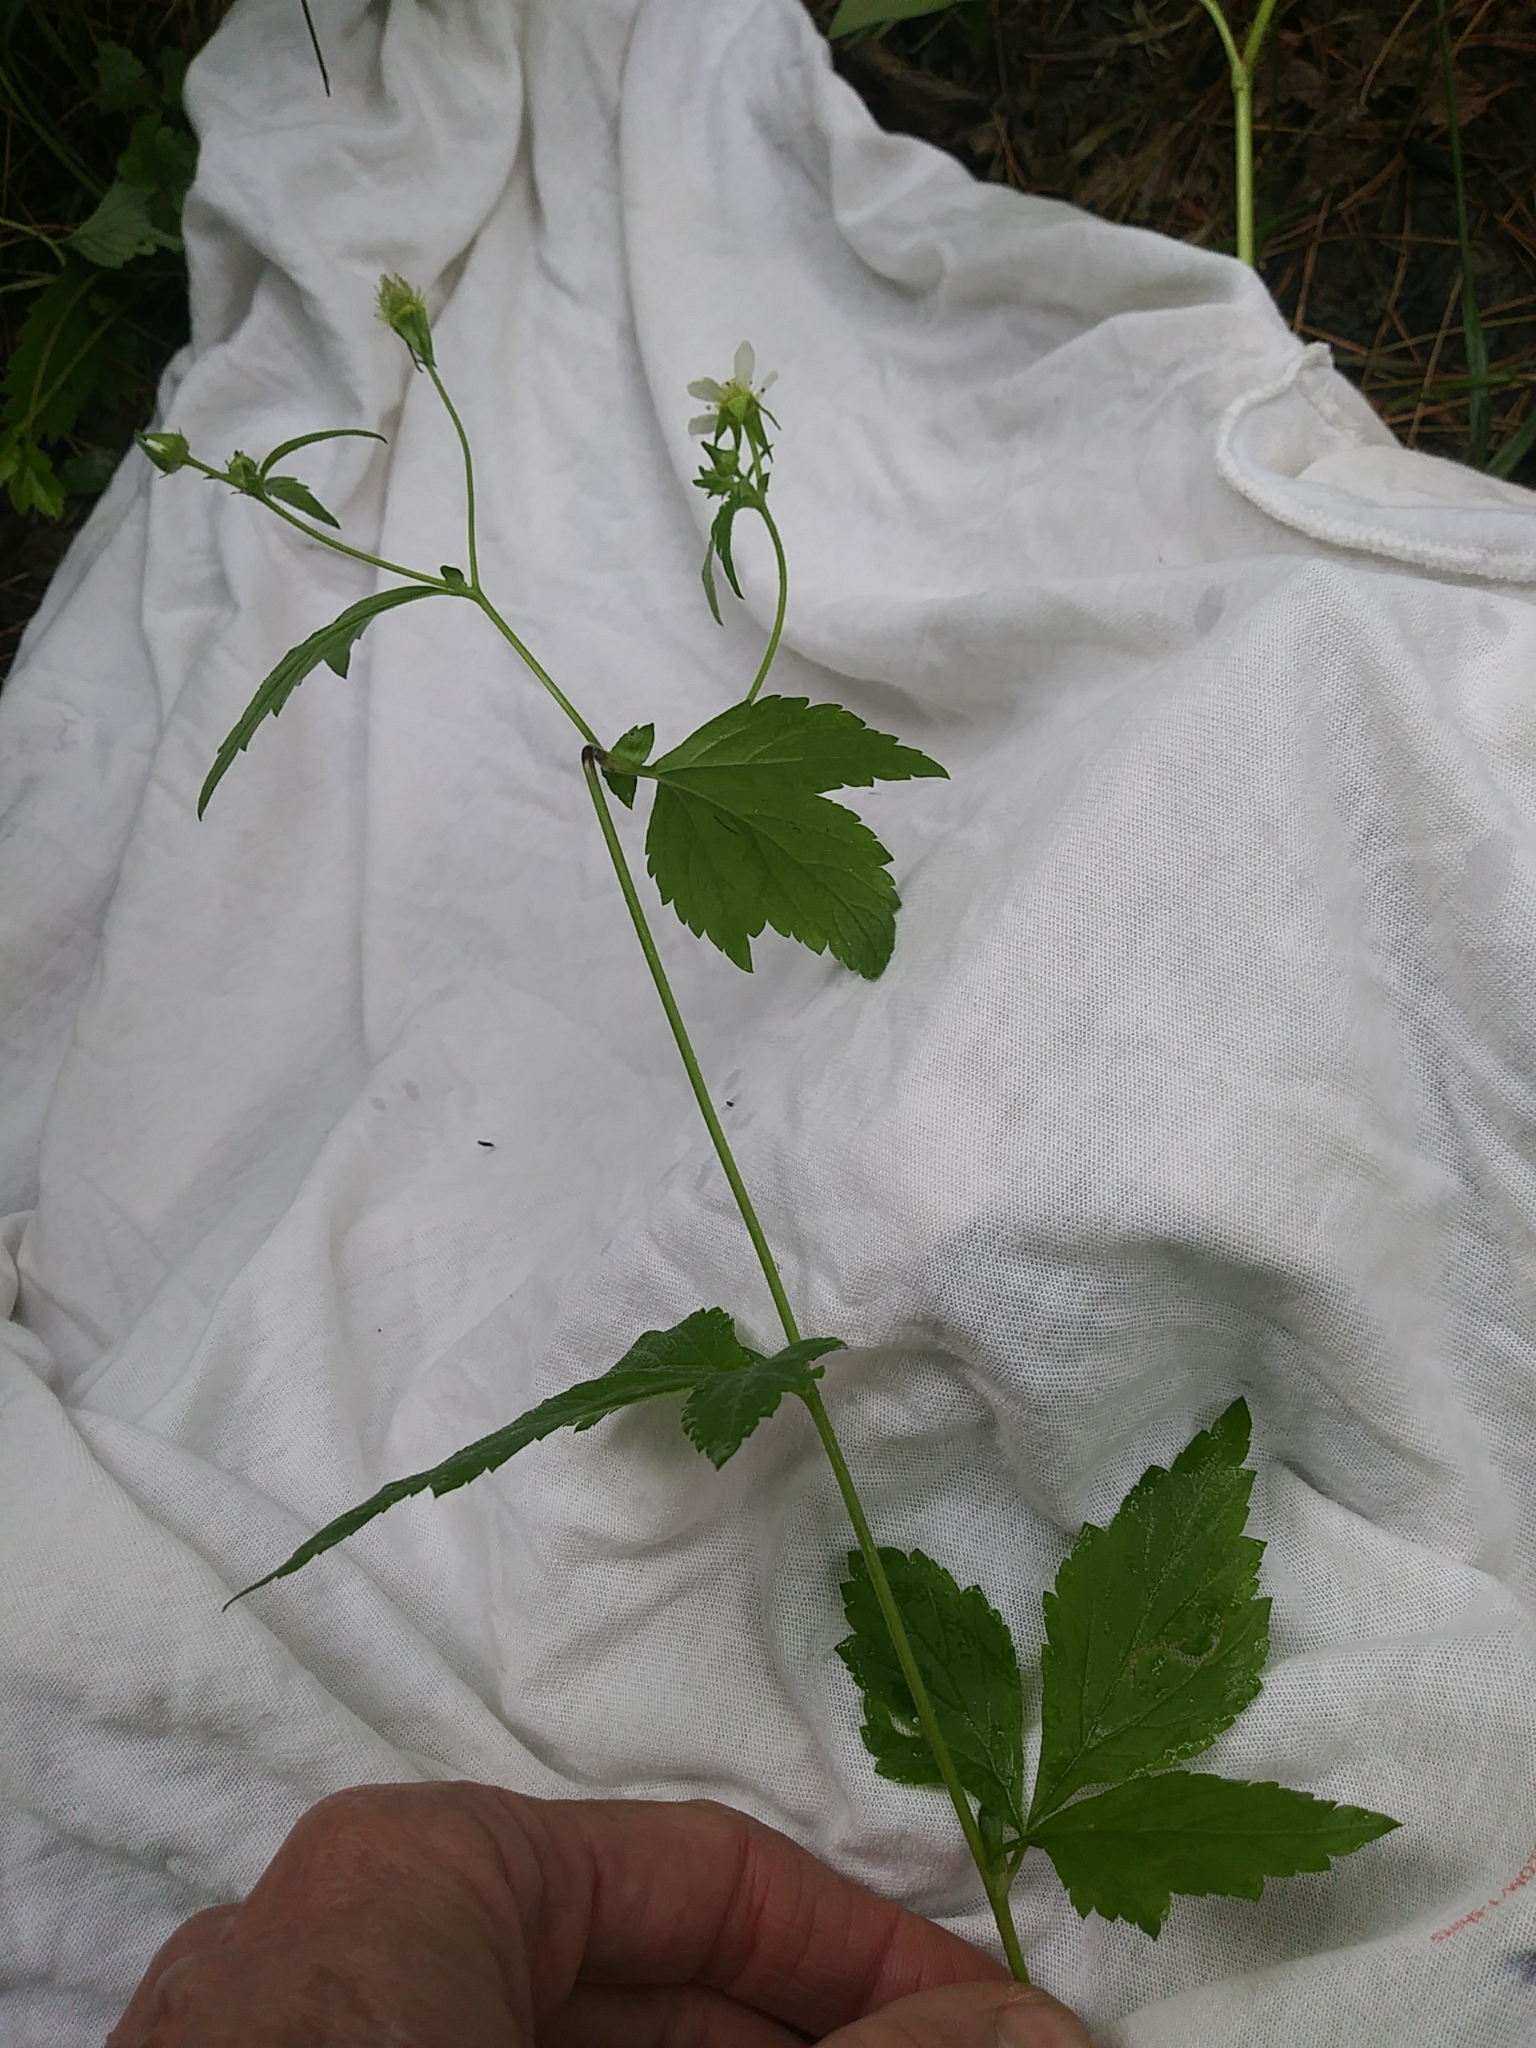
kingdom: Plantae
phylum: Tracheophyta
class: Magnoliopsida
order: Rosales
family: Rosaceae
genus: Geum
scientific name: Geum canadense
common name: White avens
